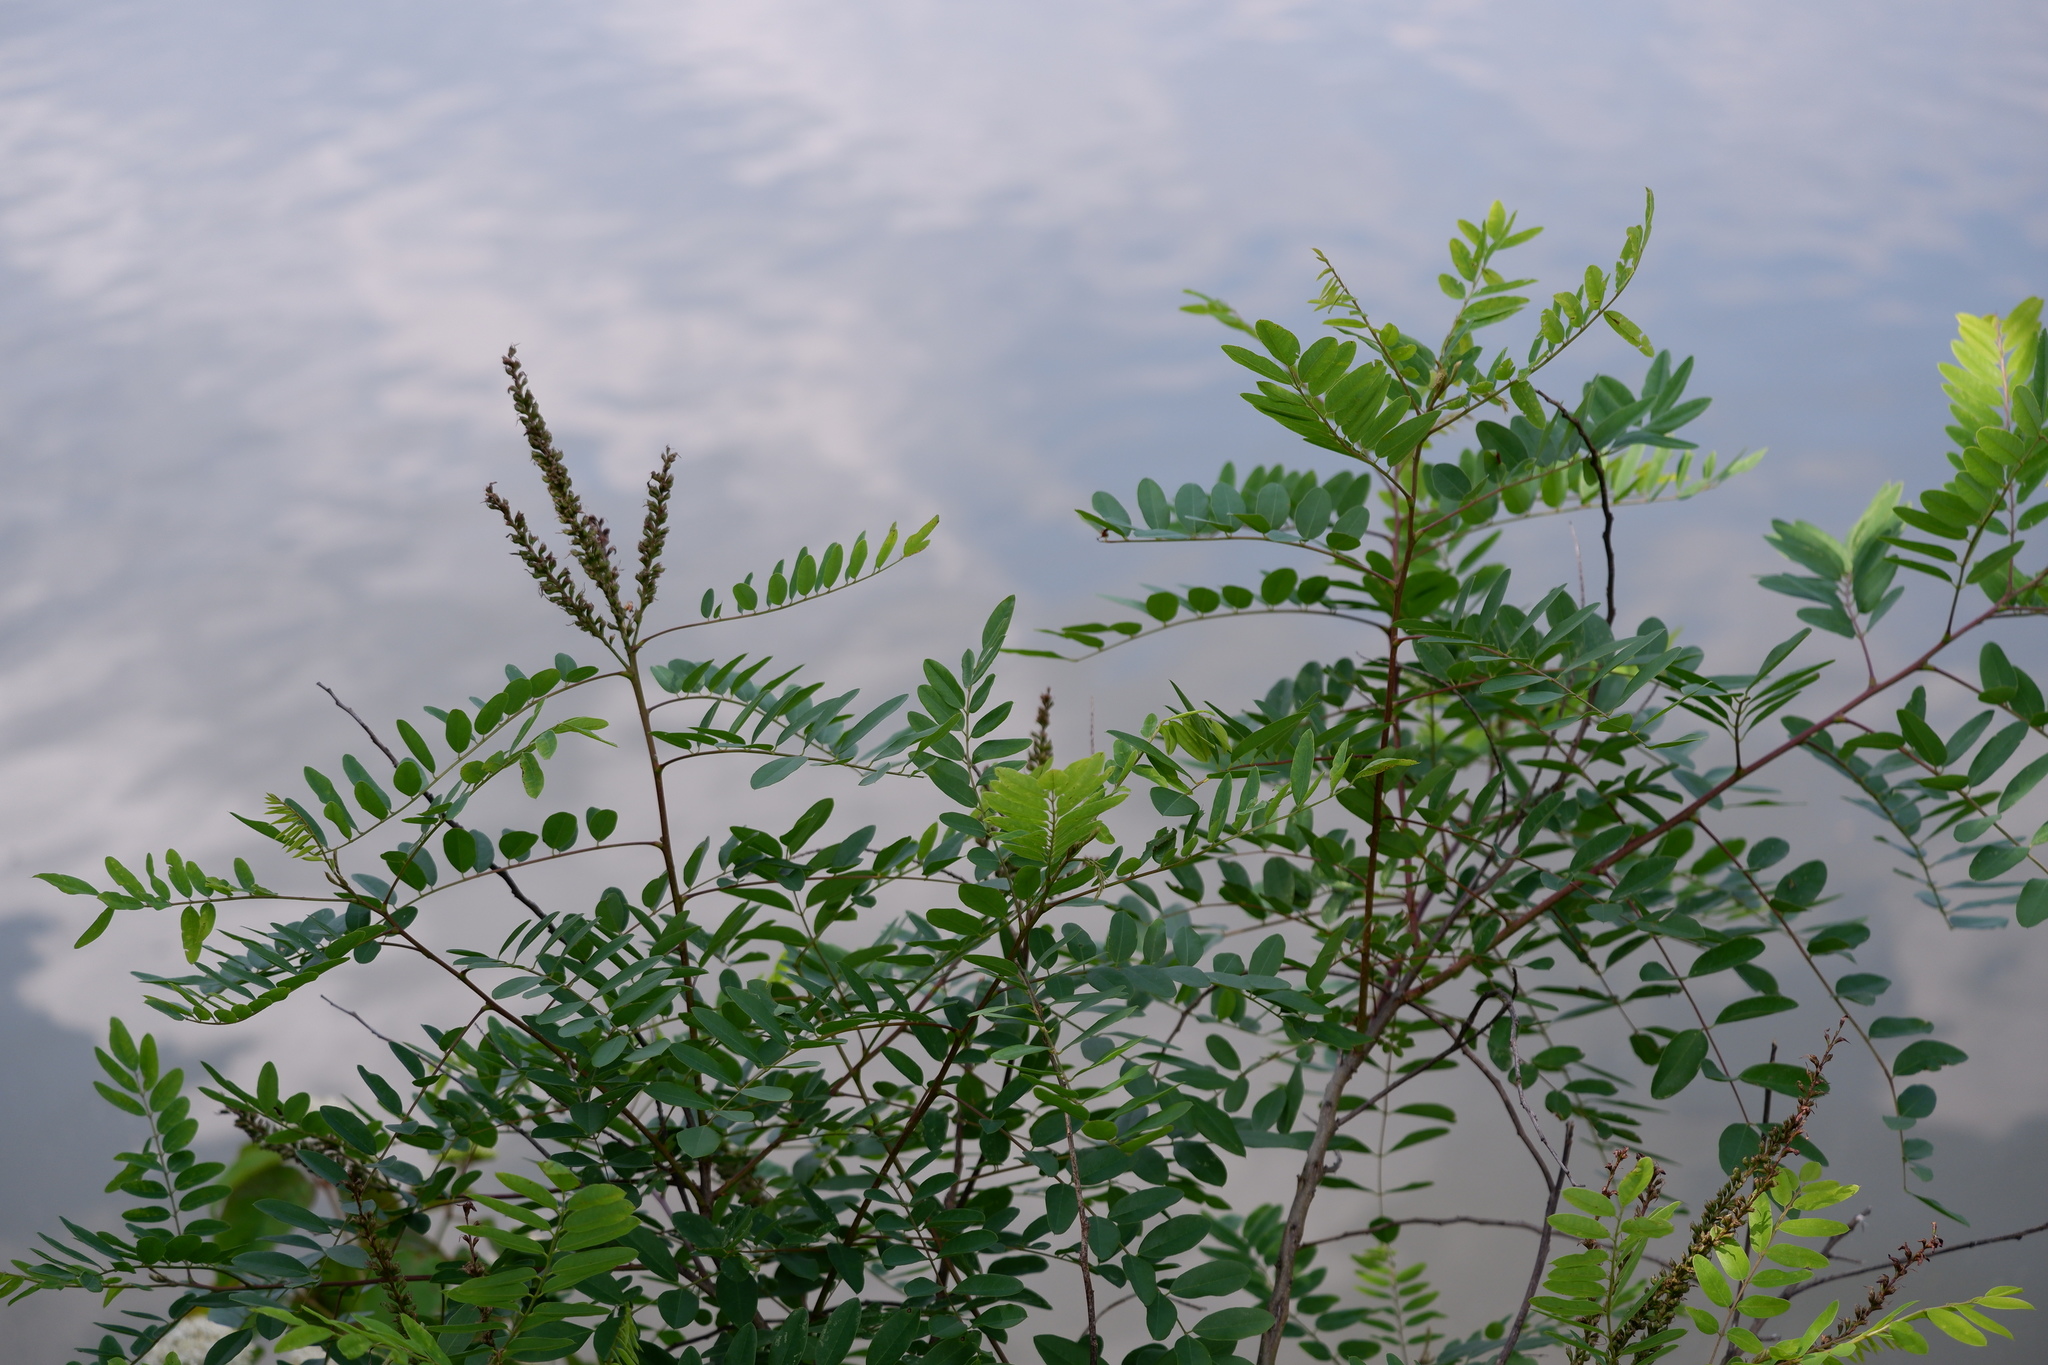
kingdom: Plantae
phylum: Tracheophyta
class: Magnoliopsida
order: Fabales
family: Fabaceae
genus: Amorpha
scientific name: Amorpha fruticosa
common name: False indigo
